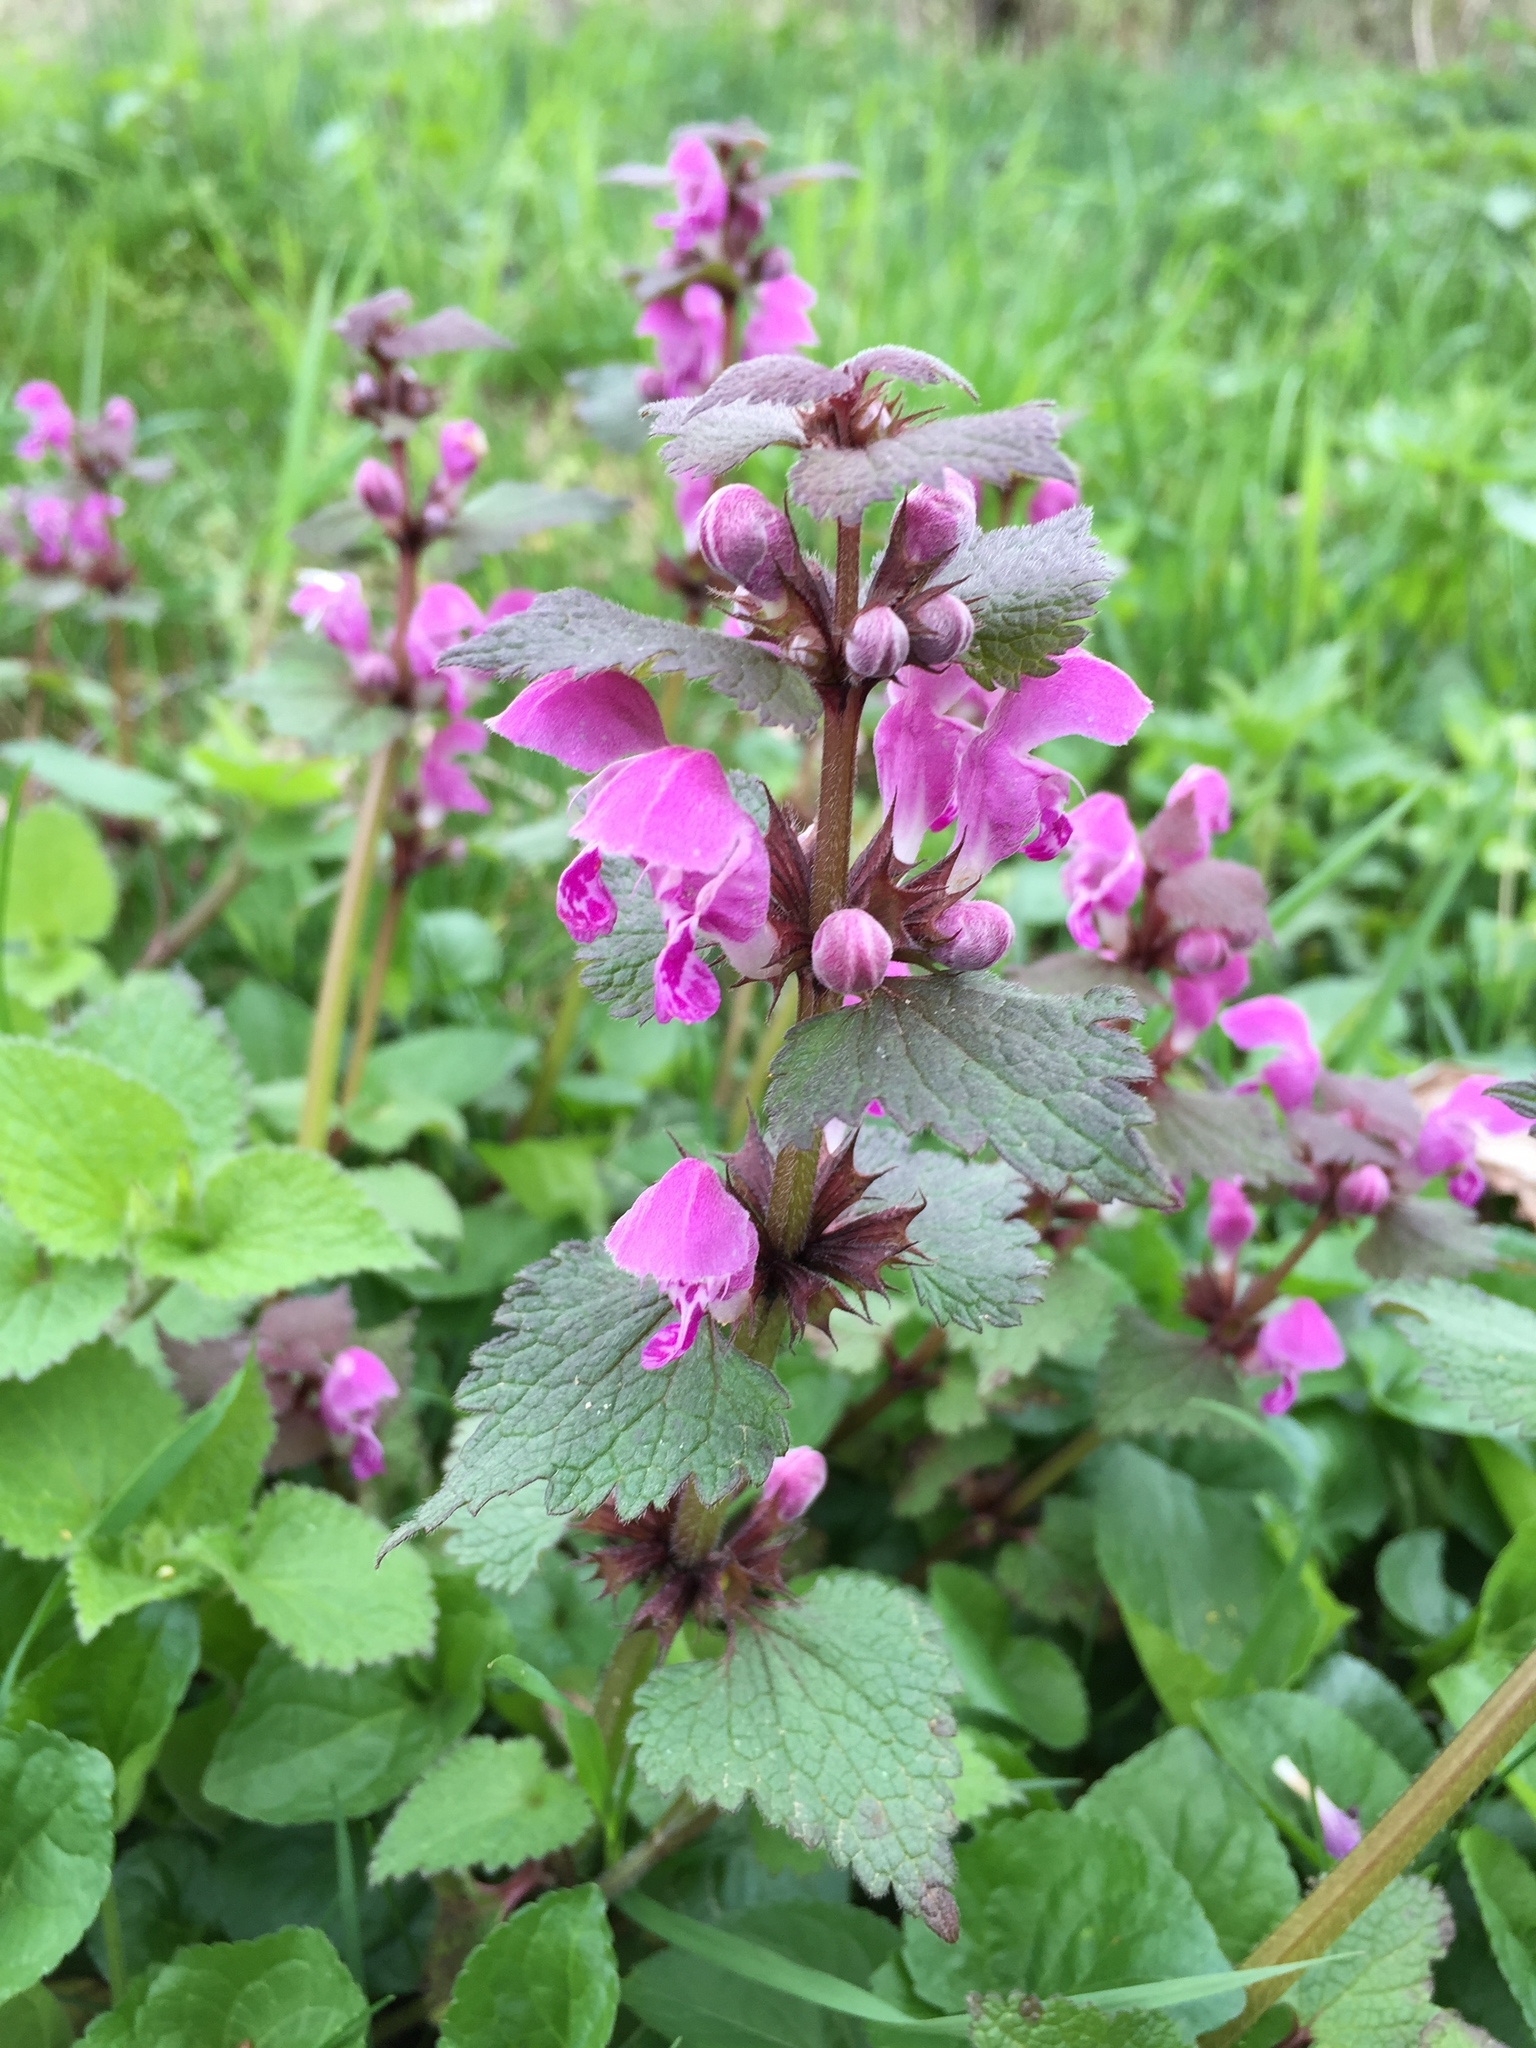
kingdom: Plantae
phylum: Tracheophyta
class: Magnoliopsida
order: Lamiales
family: Lamiaceae
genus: Lamium
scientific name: Lamium maculatum
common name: Spotted dead-nettle
